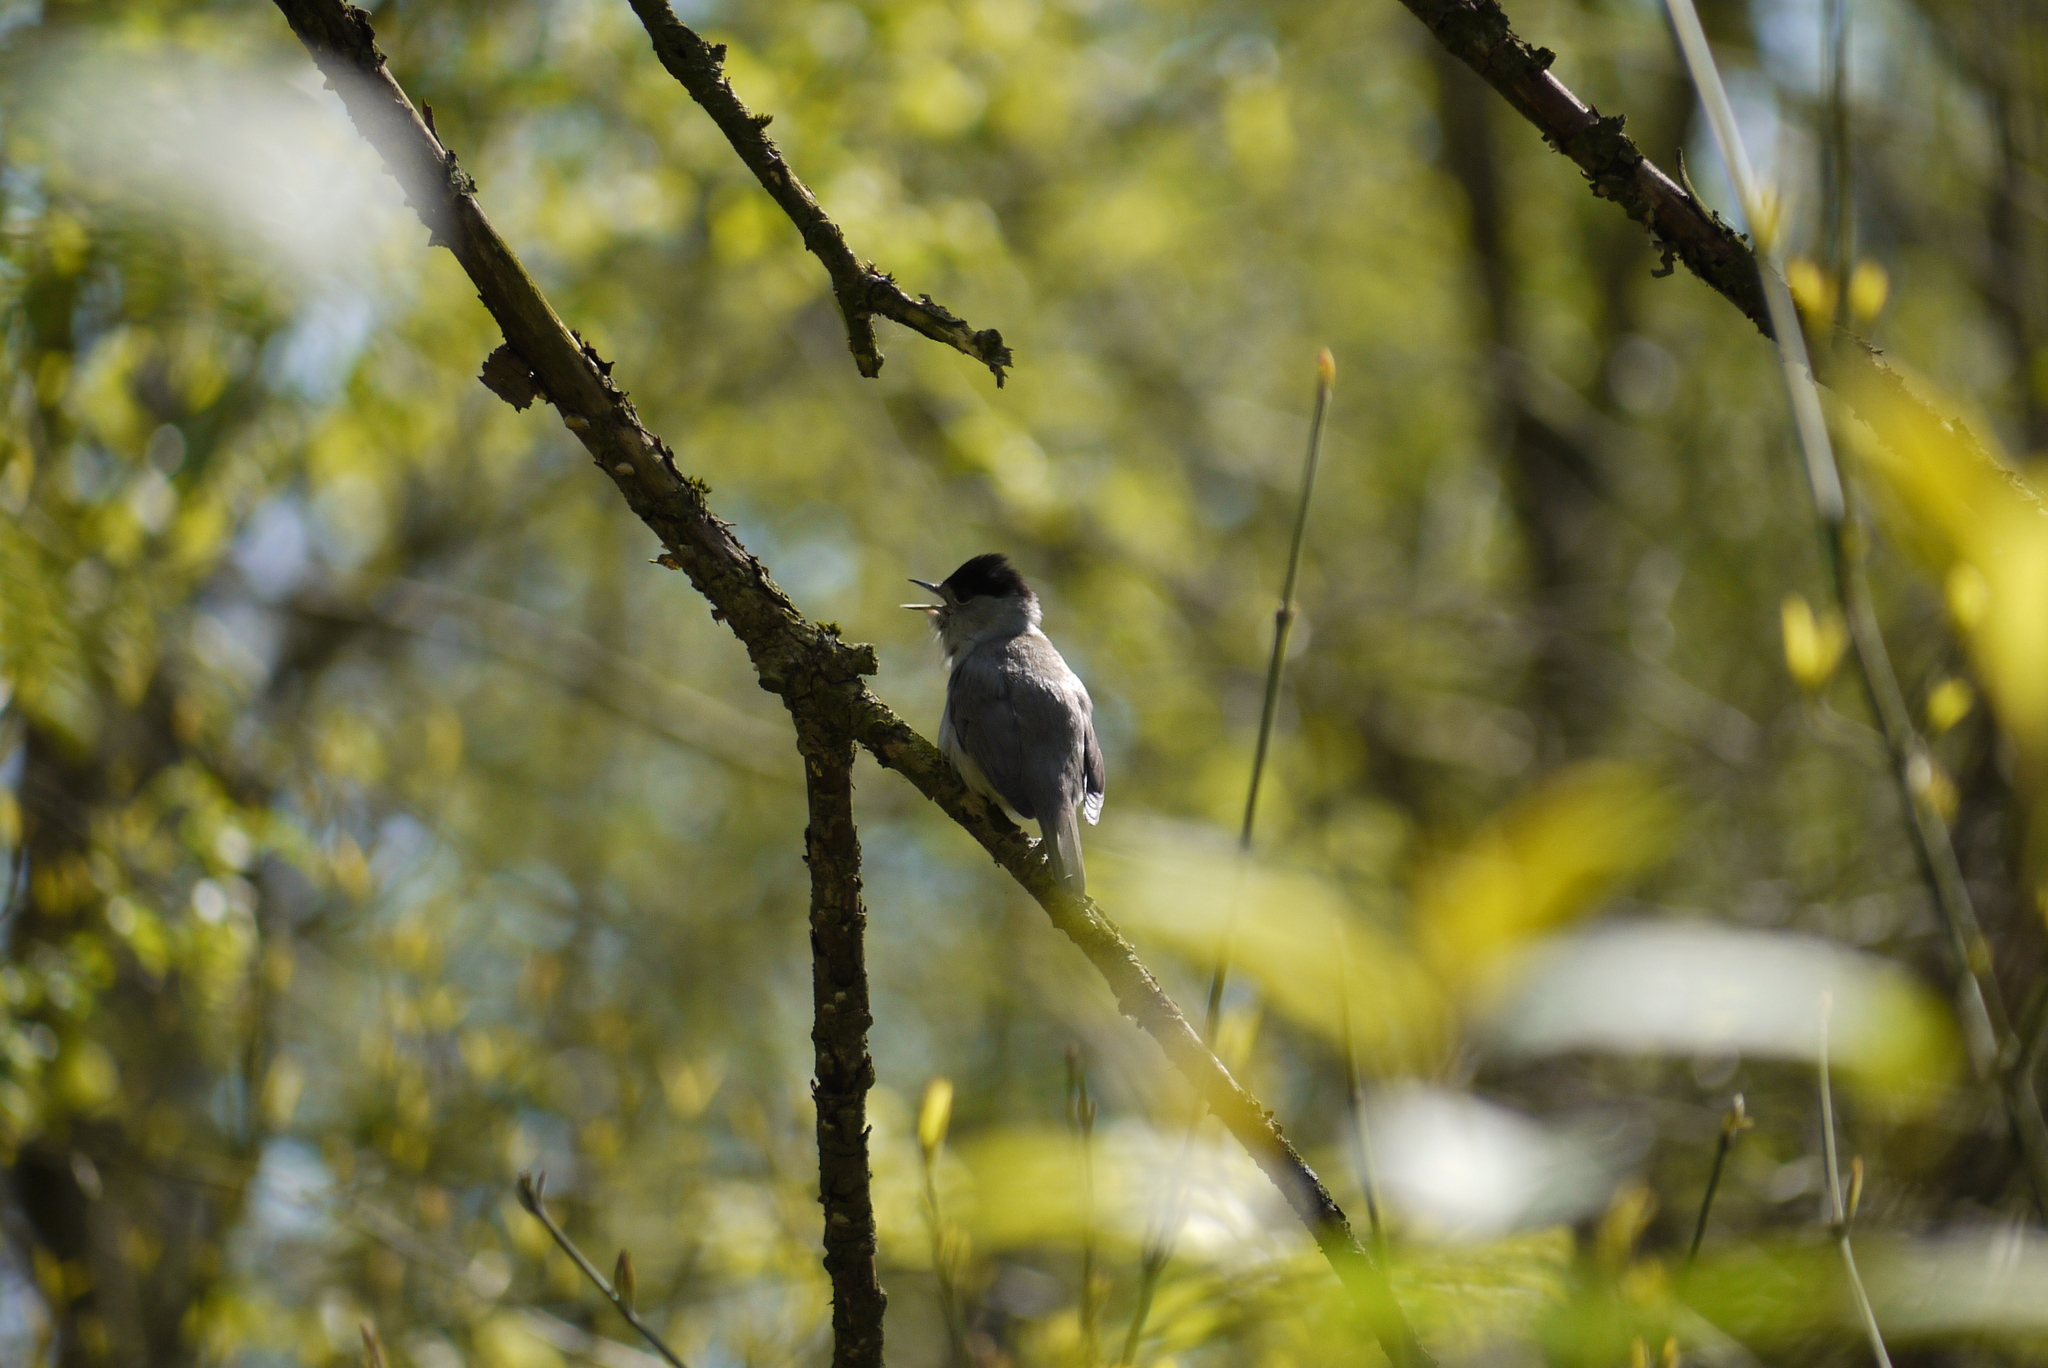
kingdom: Animalia
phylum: Chordata
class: Aves
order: Passeriformes
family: Sylviidae
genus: Sylvia
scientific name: Sylvia atricapilla
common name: Eurasian blackcap
